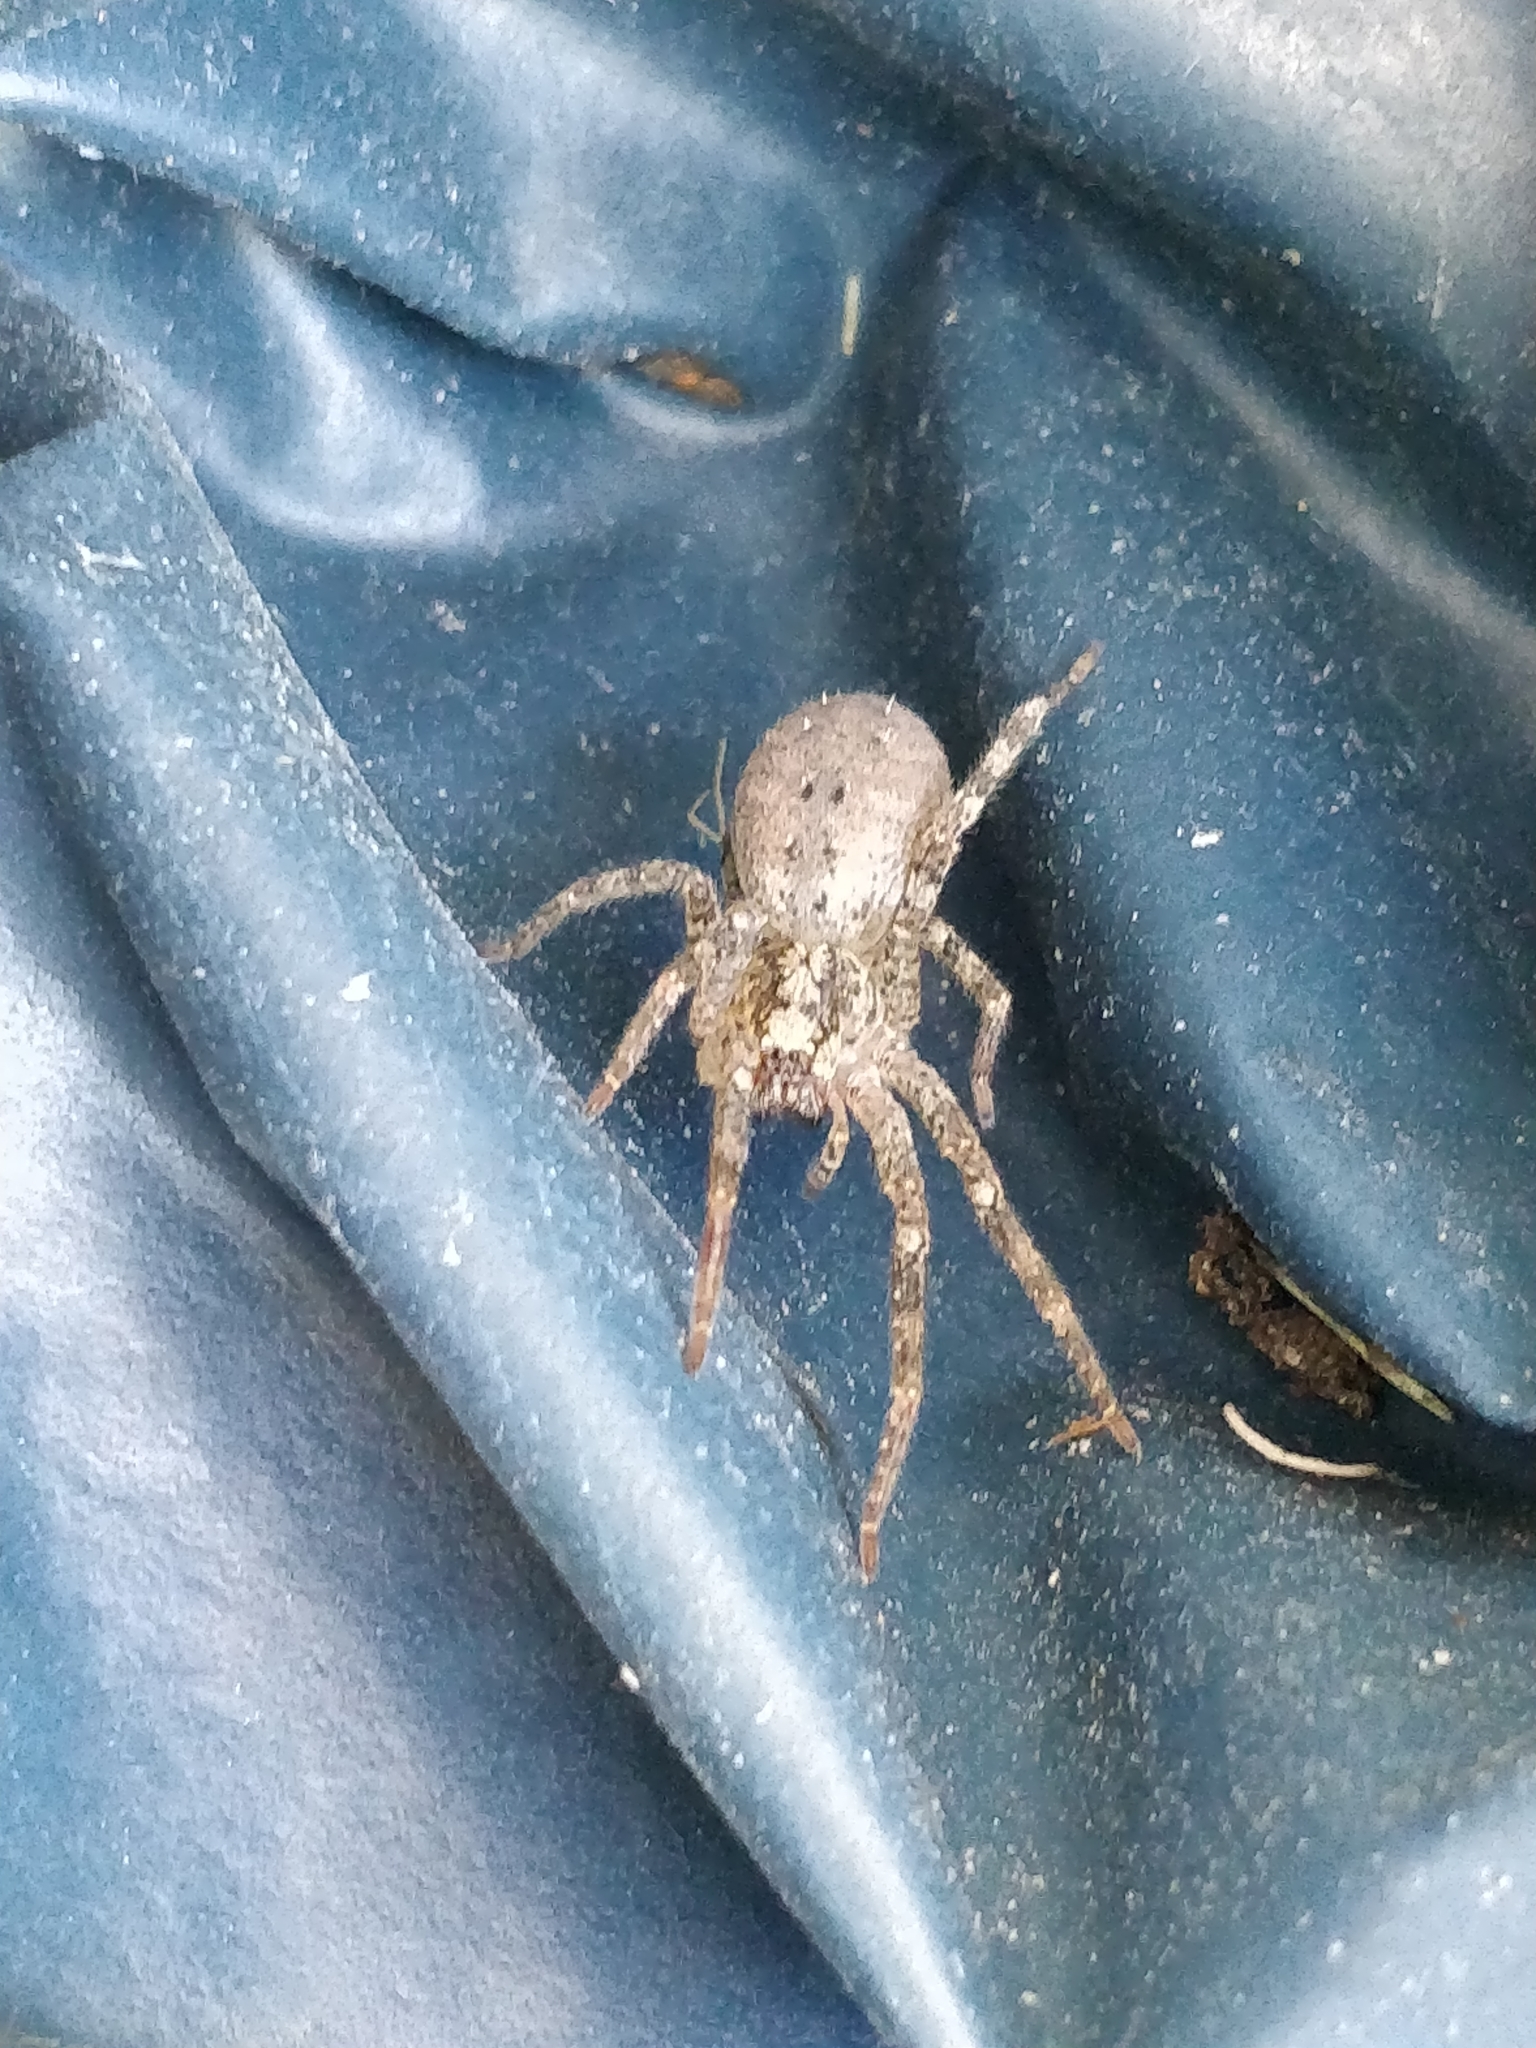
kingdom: Animalia
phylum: Arthropoda
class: Arachnida
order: Araneae
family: Zoropsidae
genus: Zoropsis
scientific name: Zoropsis spinimana
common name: Zoropsid spider
